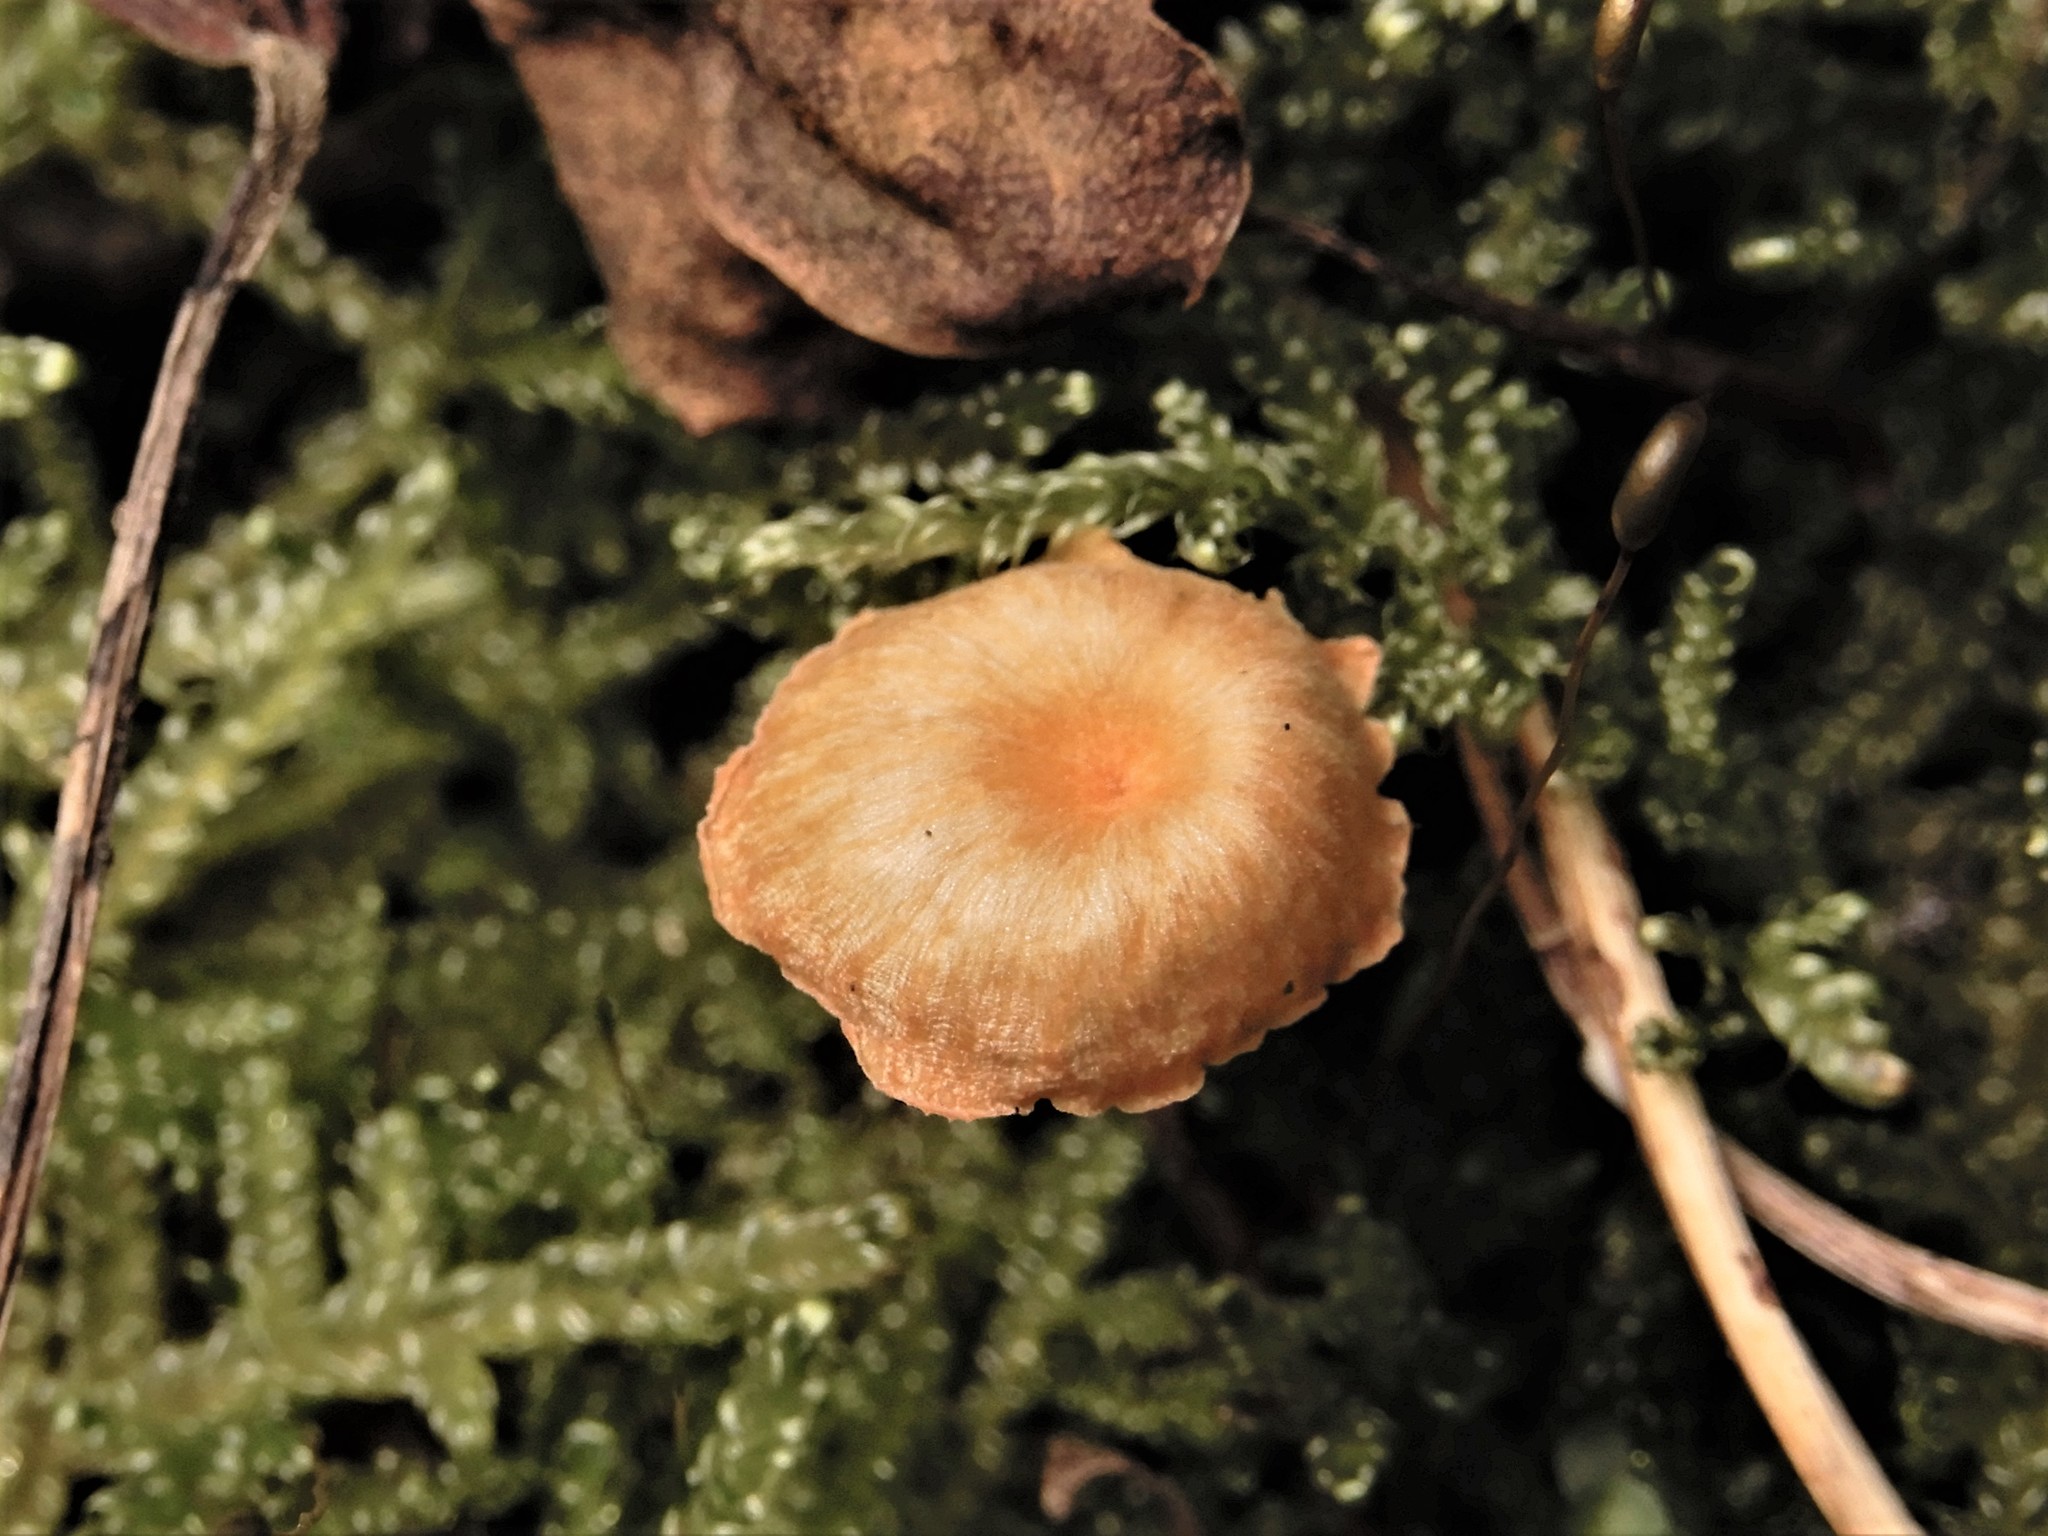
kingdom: Fungi
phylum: Basidiomycota
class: Agaricomycetes
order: Hymenochaetales
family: Rickenellaceae
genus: Rickenella
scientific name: Rickenella fibula
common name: Orange mosscap
